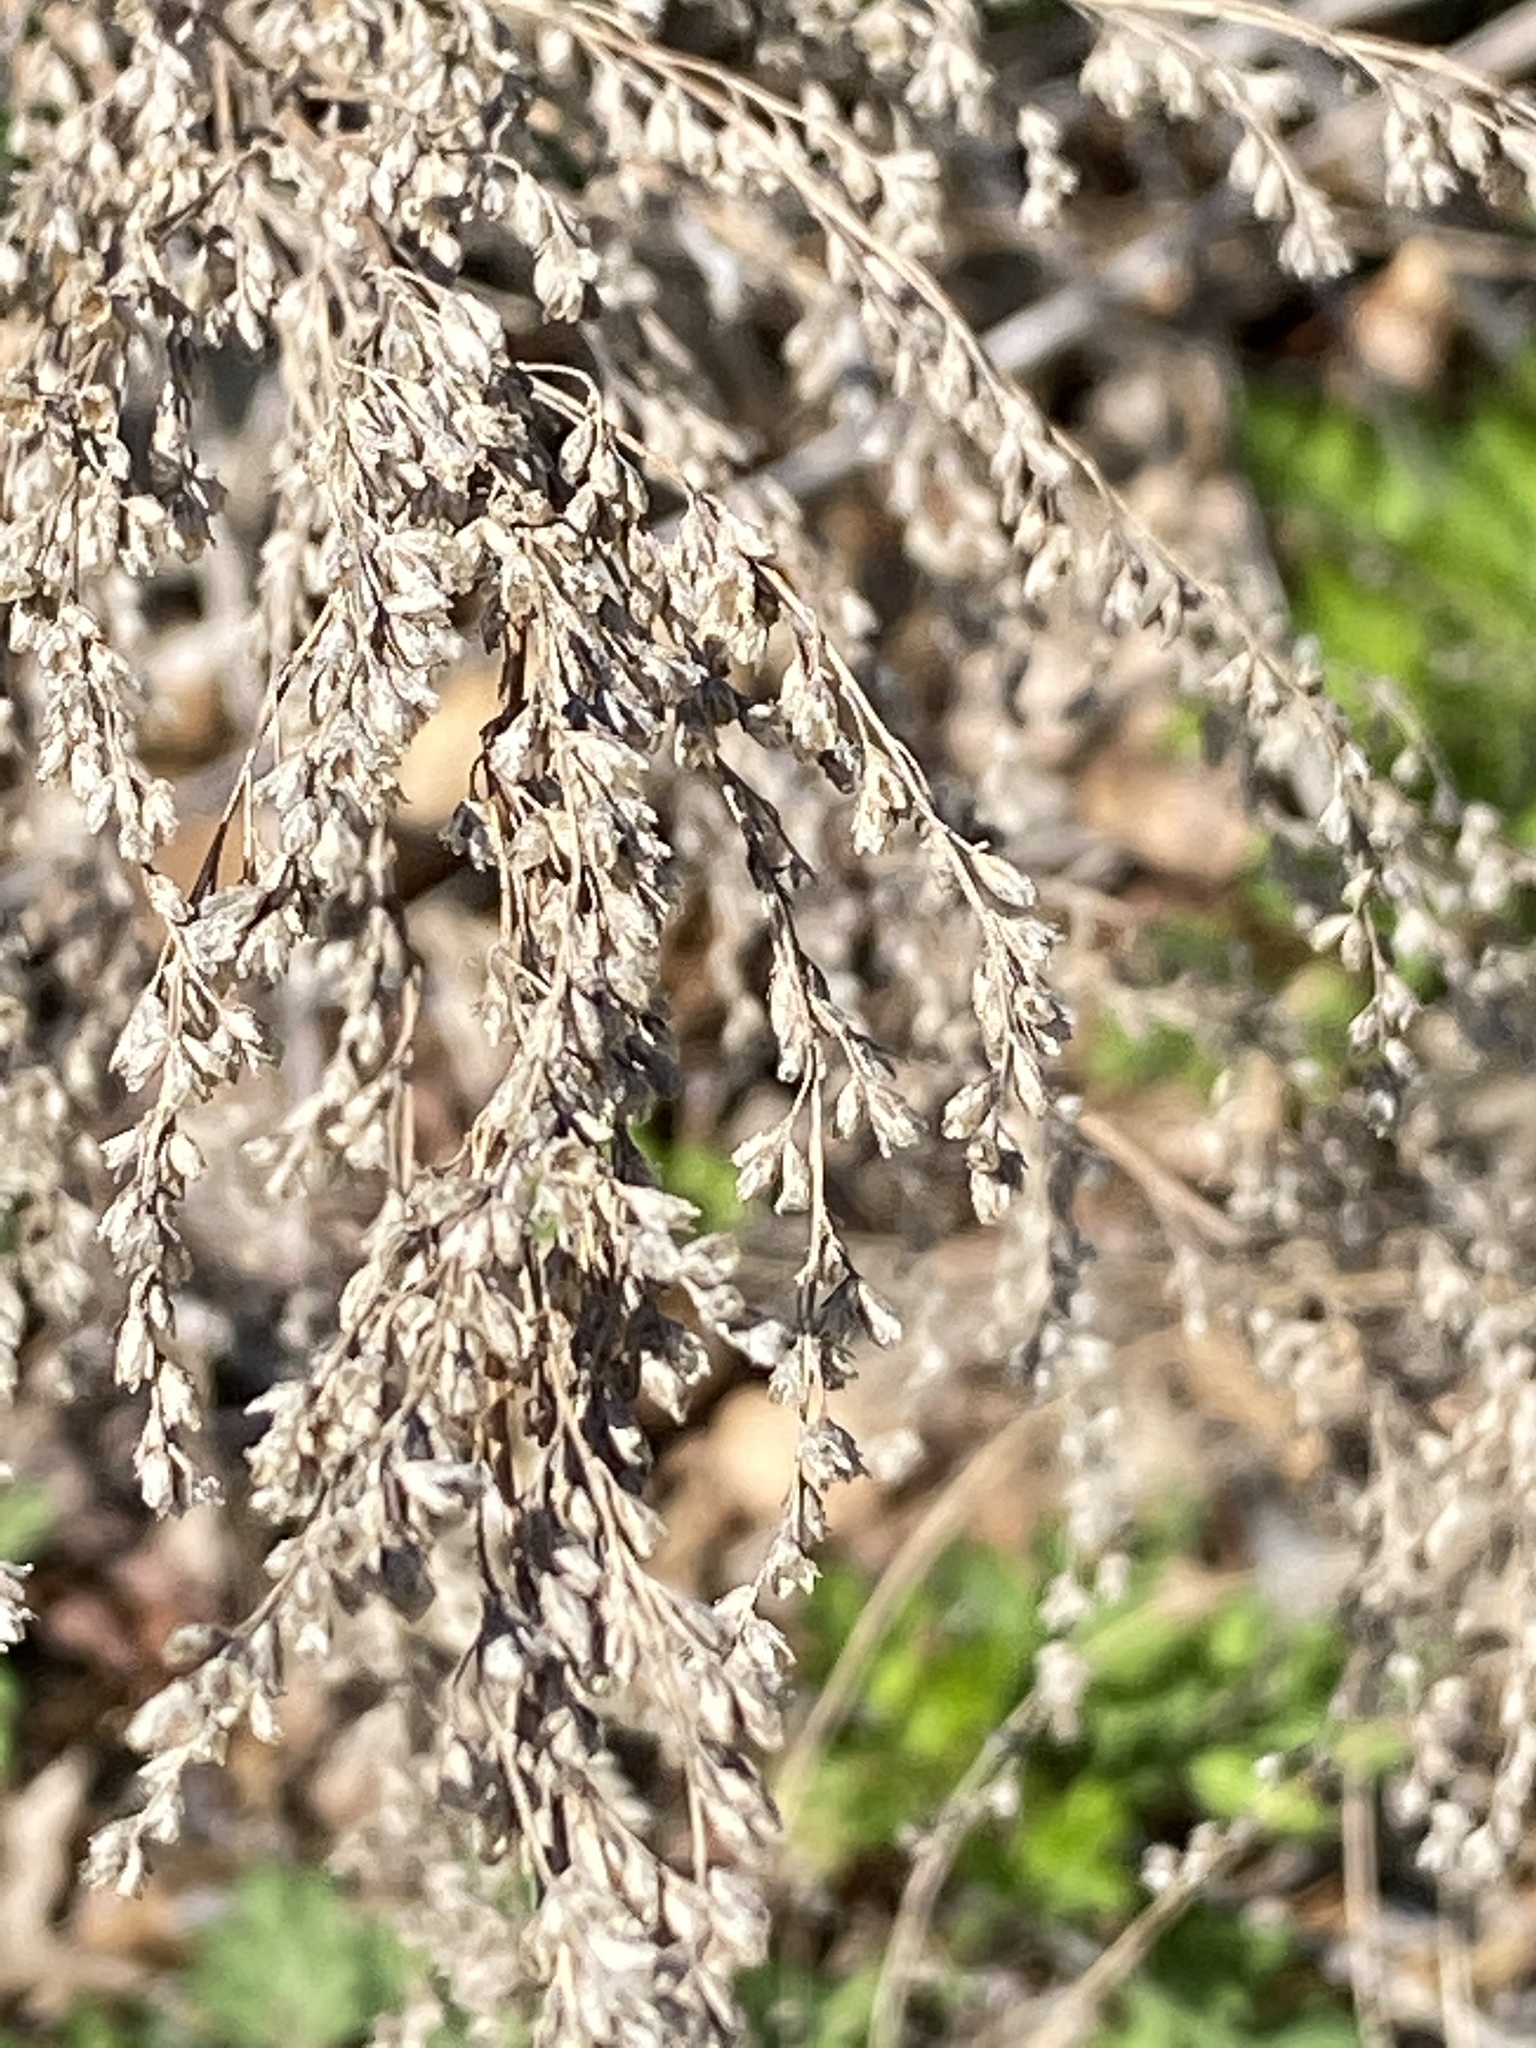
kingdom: Plantae
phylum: Tracheophyta
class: Magnoliopsida
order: Asterales
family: Asteraceae
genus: Artemisia
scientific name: Artemisia vulgaris
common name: Mugwort
